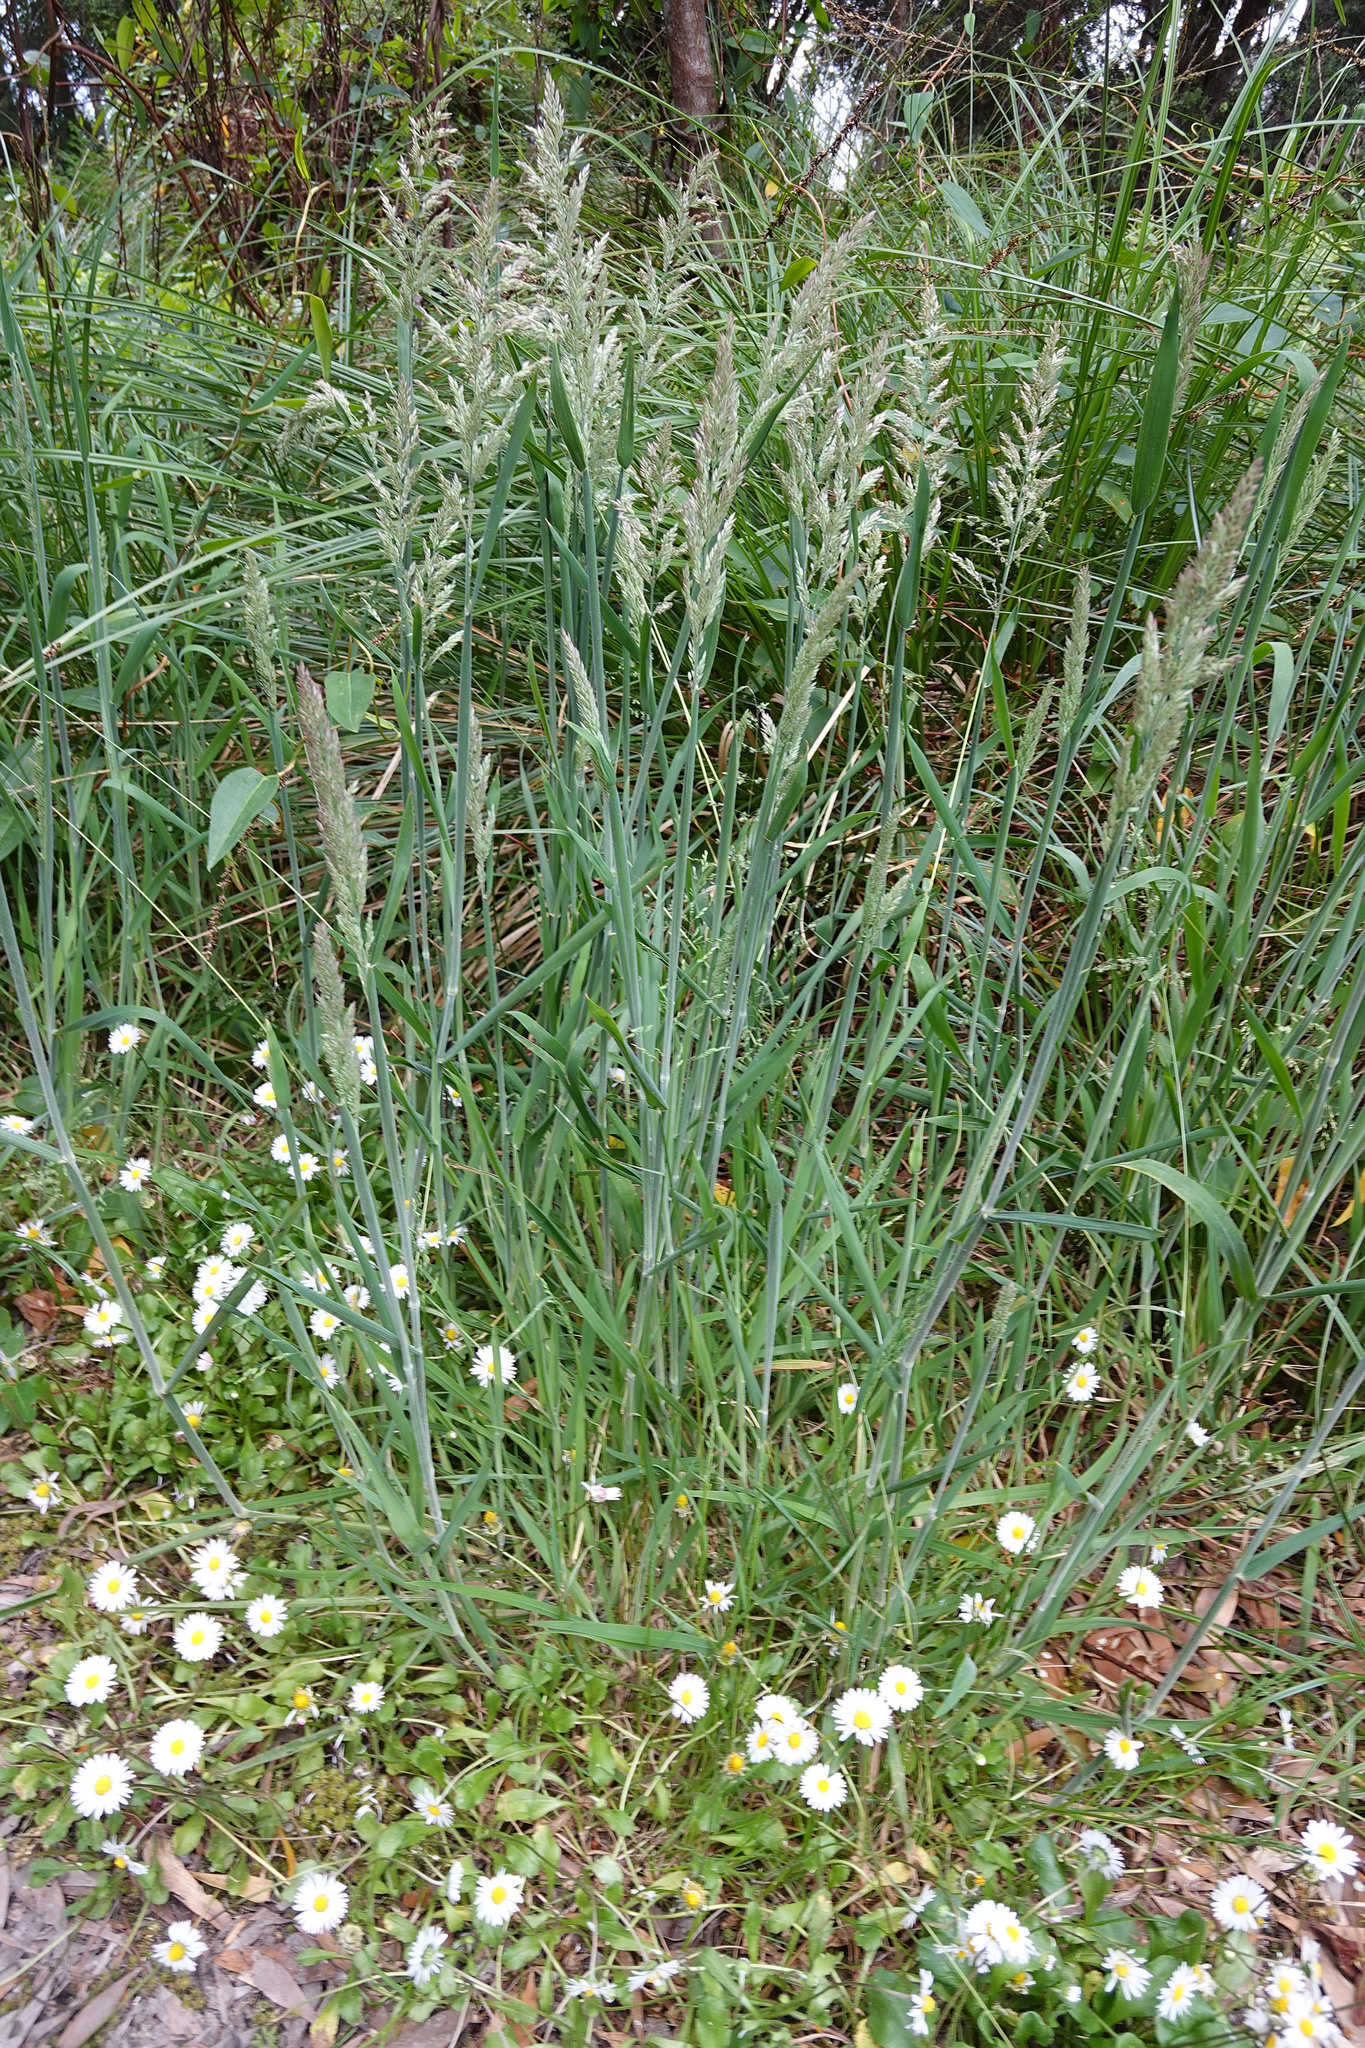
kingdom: Plantae
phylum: Tracheophyta
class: Liliopsida
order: Poales
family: Poaceae
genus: Holcus
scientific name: Holcus lanatus
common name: Yorkshire-fog
